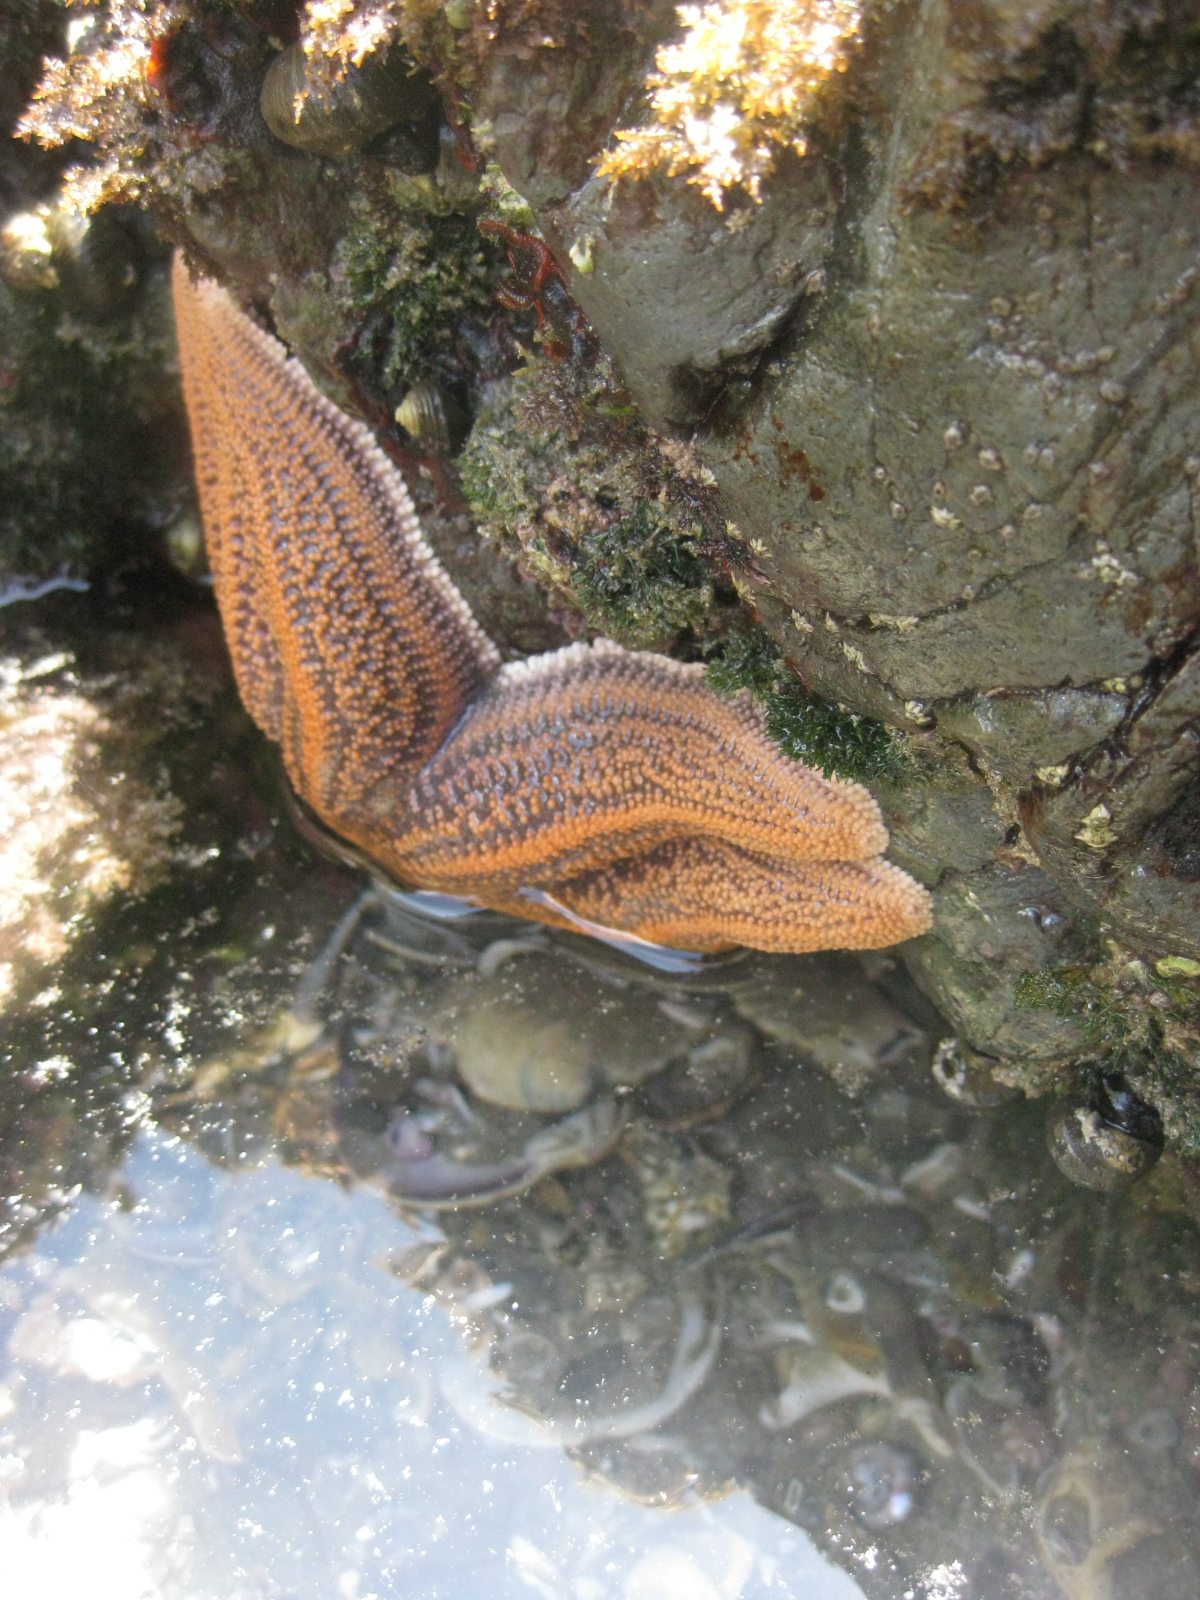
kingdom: Animalia
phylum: Echinodermata
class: Asteroidea
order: Forcipulatida
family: Stichasteridae
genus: Stichaster
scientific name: Stichaster australis
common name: Reef starfish
